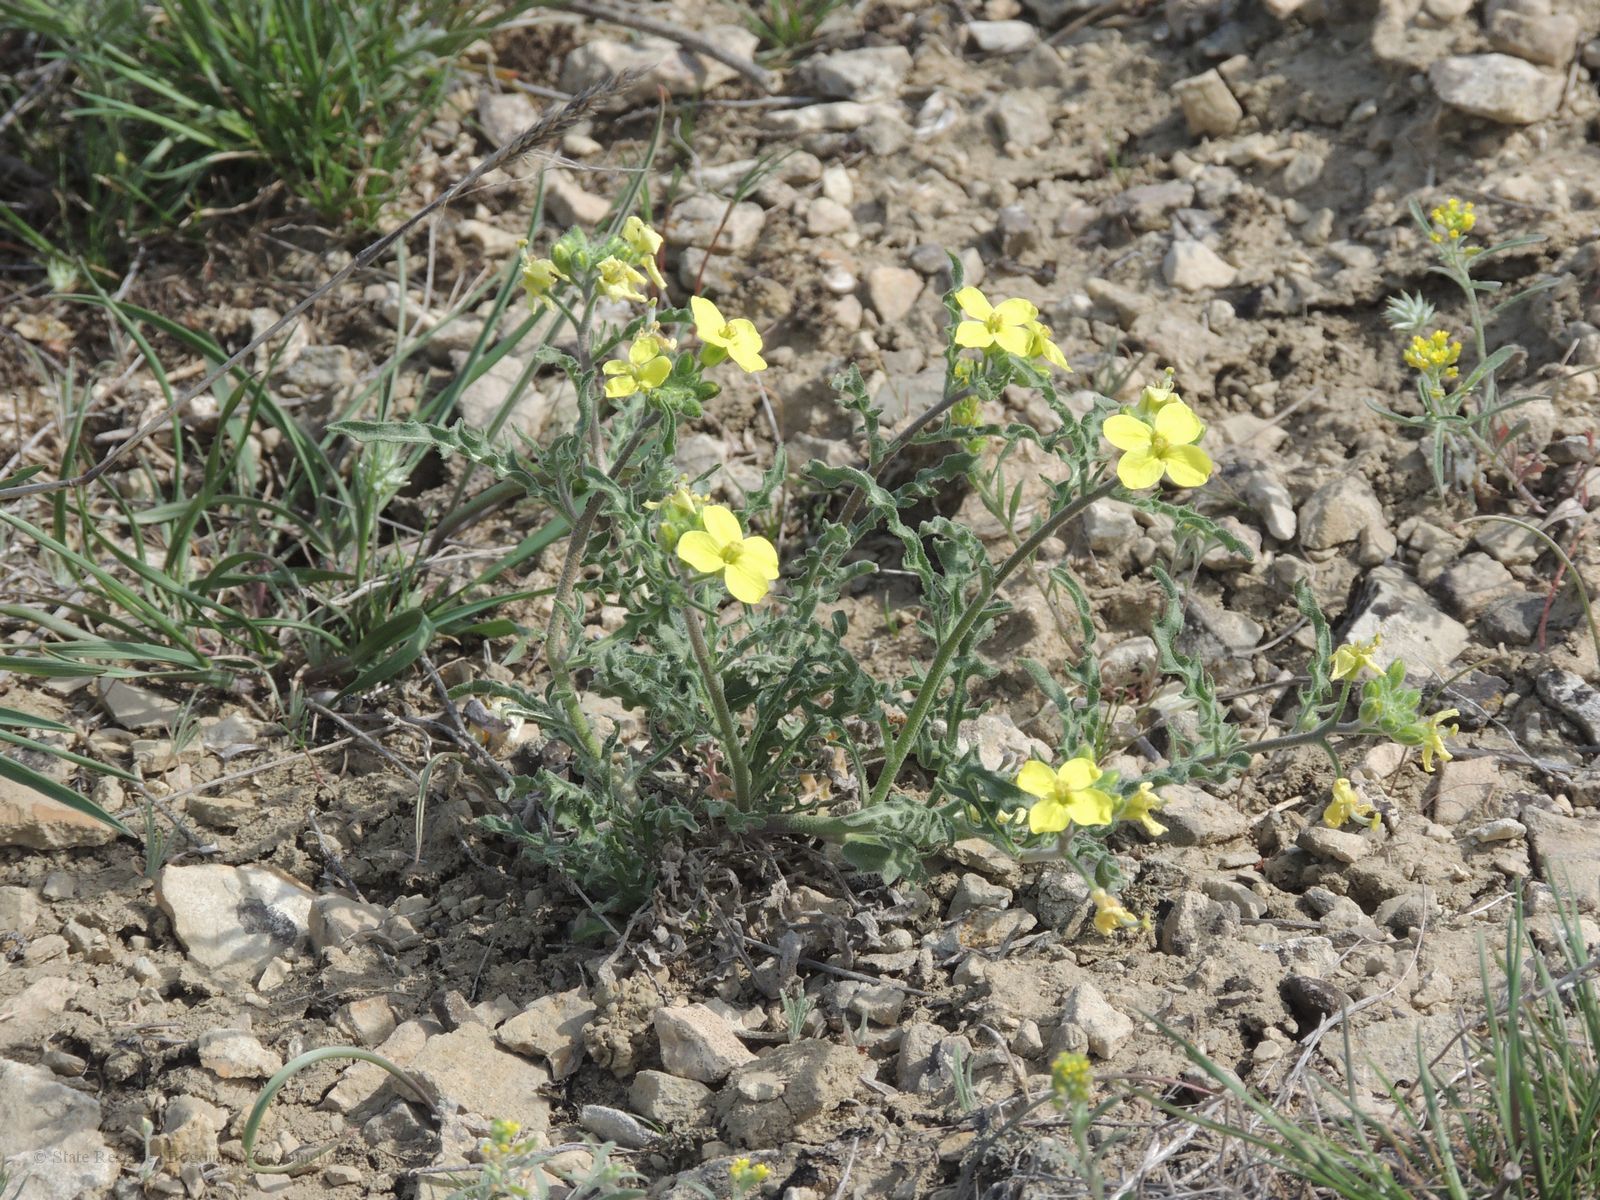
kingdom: Plantae
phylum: Tracheophyta
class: Magnoliopsida
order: Brassicales
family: Brassicaceae
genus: Sterigmostemum
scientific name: Sterigmostemum caspicum
